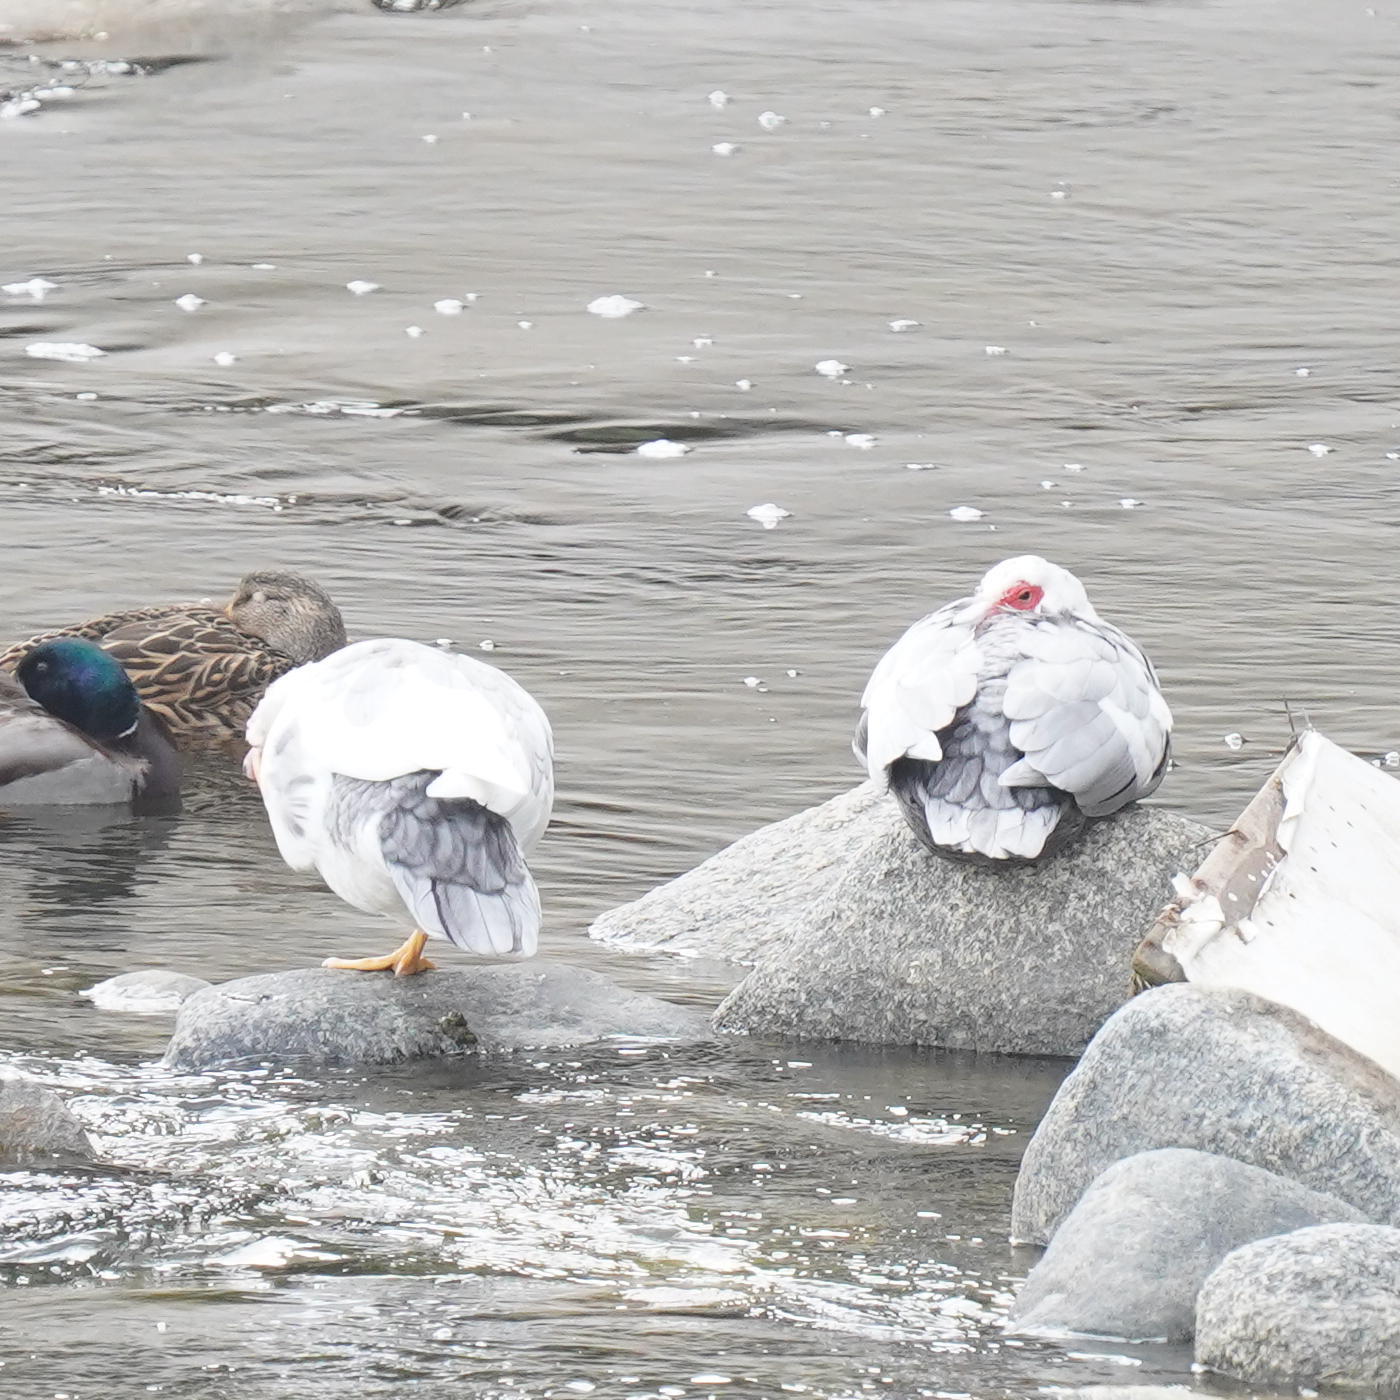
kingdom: Animalia
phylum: Chordata
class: Aves
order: Anseriformes
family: Anatidae
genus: Cairina
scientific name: Cairina moschata
